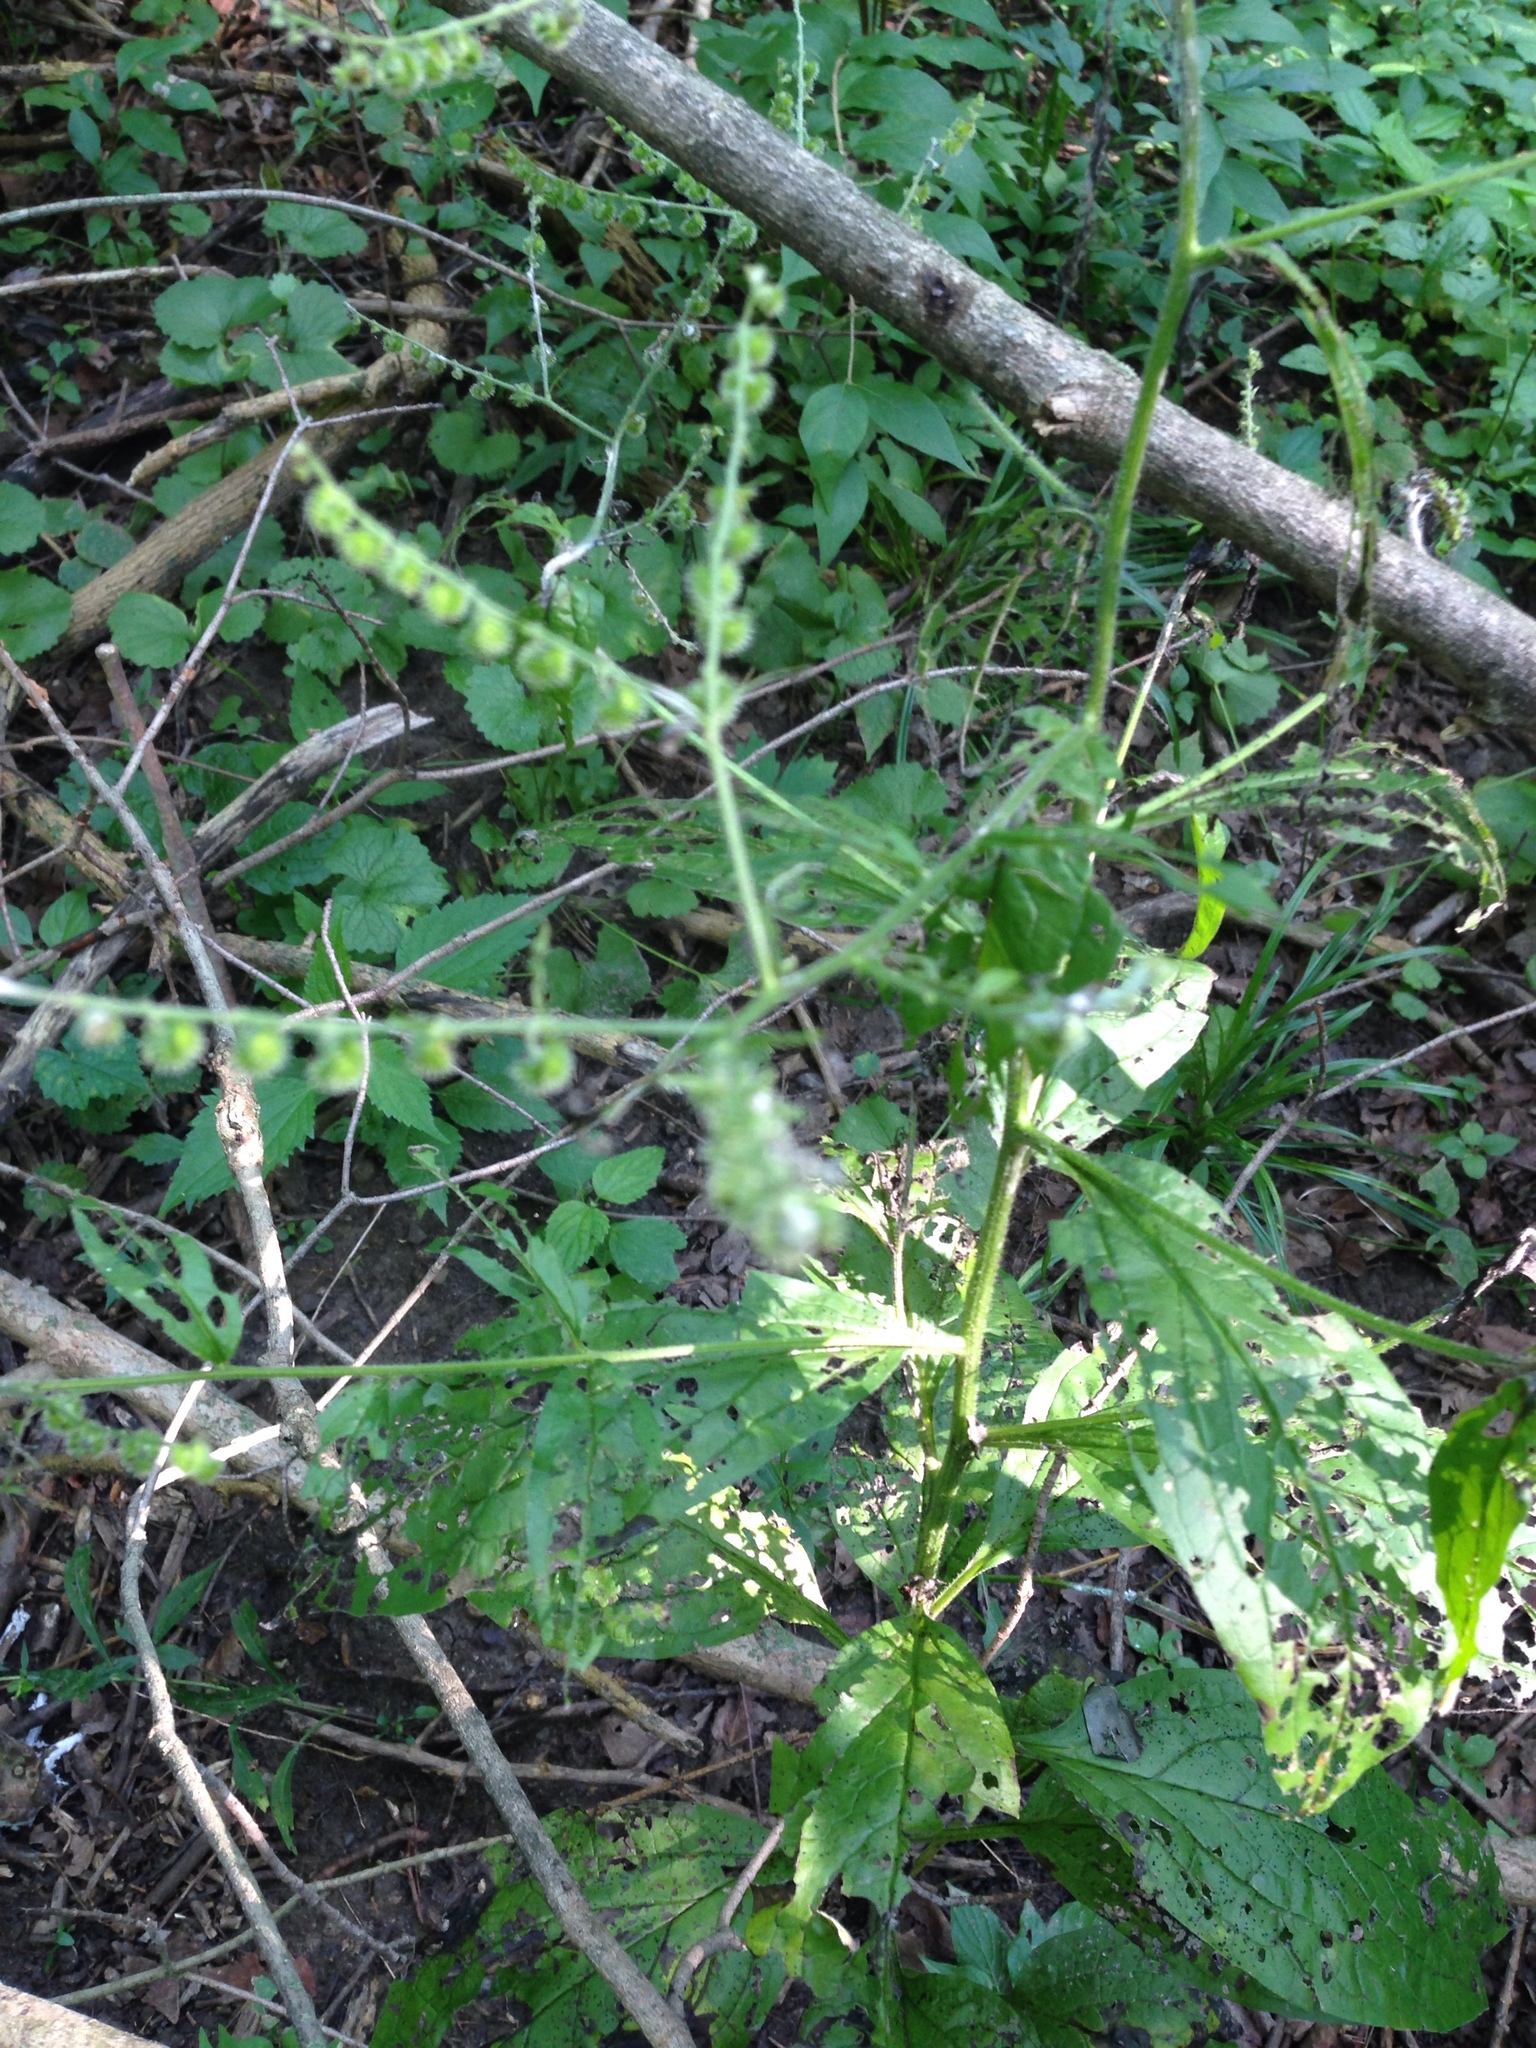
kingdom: Plantae
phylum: Tracheophyta
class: Magnoliopsida
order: Boraginales
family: Boraginaceae
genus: Hackelia
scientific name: Hackelia virginiana
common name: Beggar's-lice
